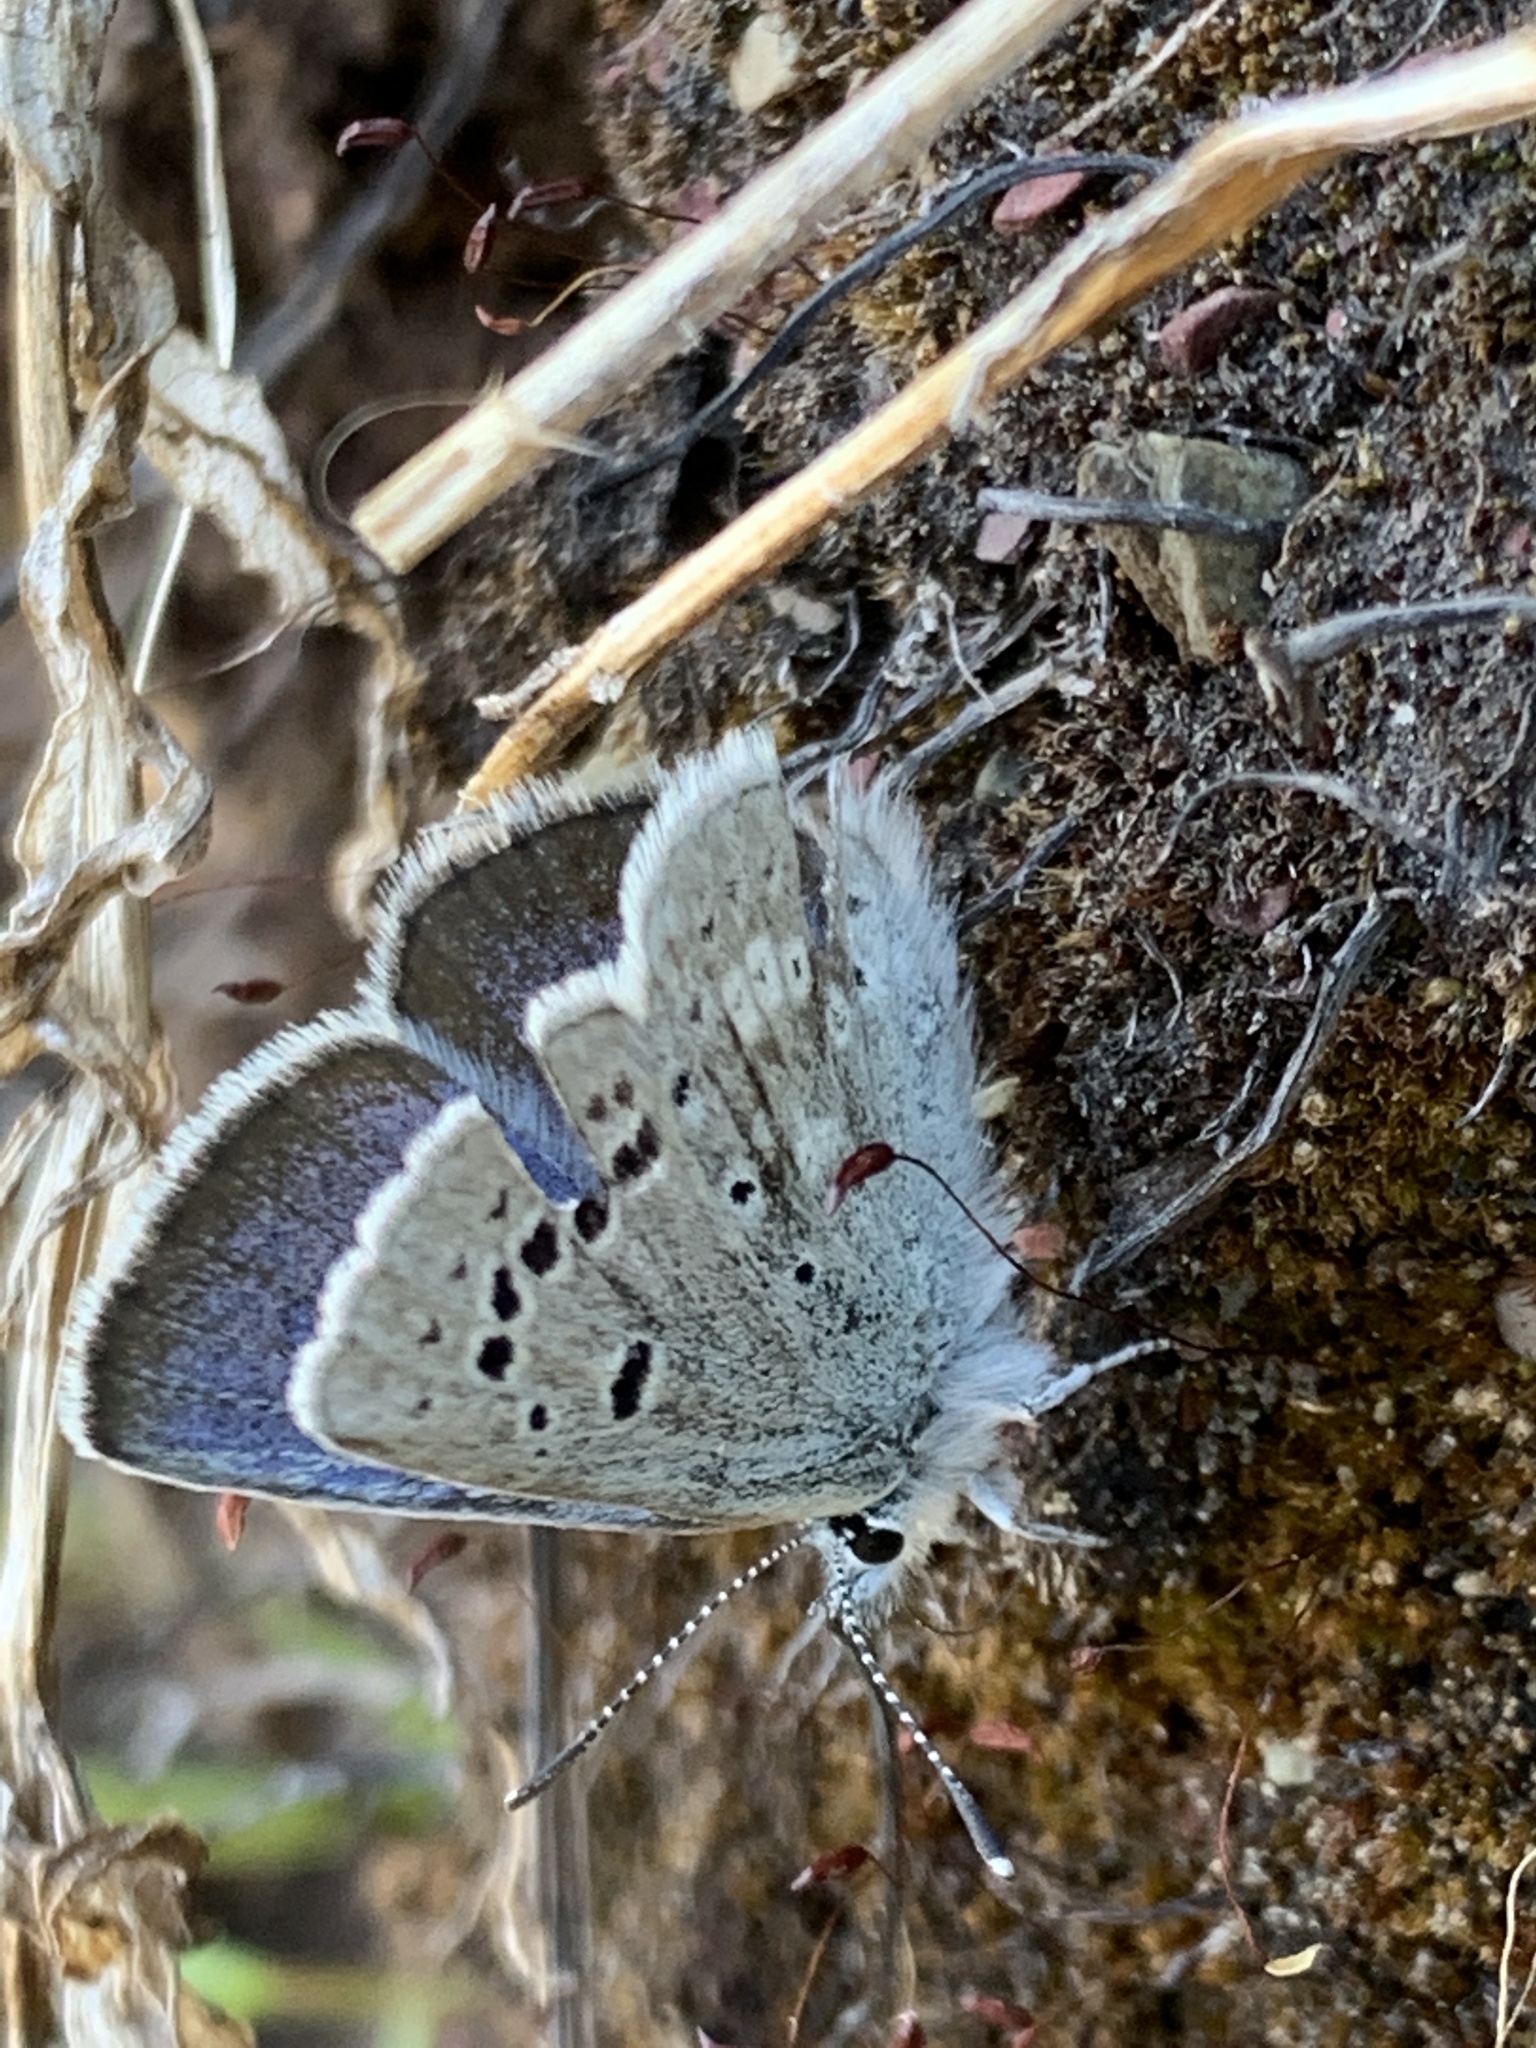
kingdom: Animalia
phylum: Arthropoda
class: Insecta
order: Lepidoptera
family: Lycaenidae
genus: Icaricia
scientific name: Icaricia icarioides
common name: Boisduval's blue
